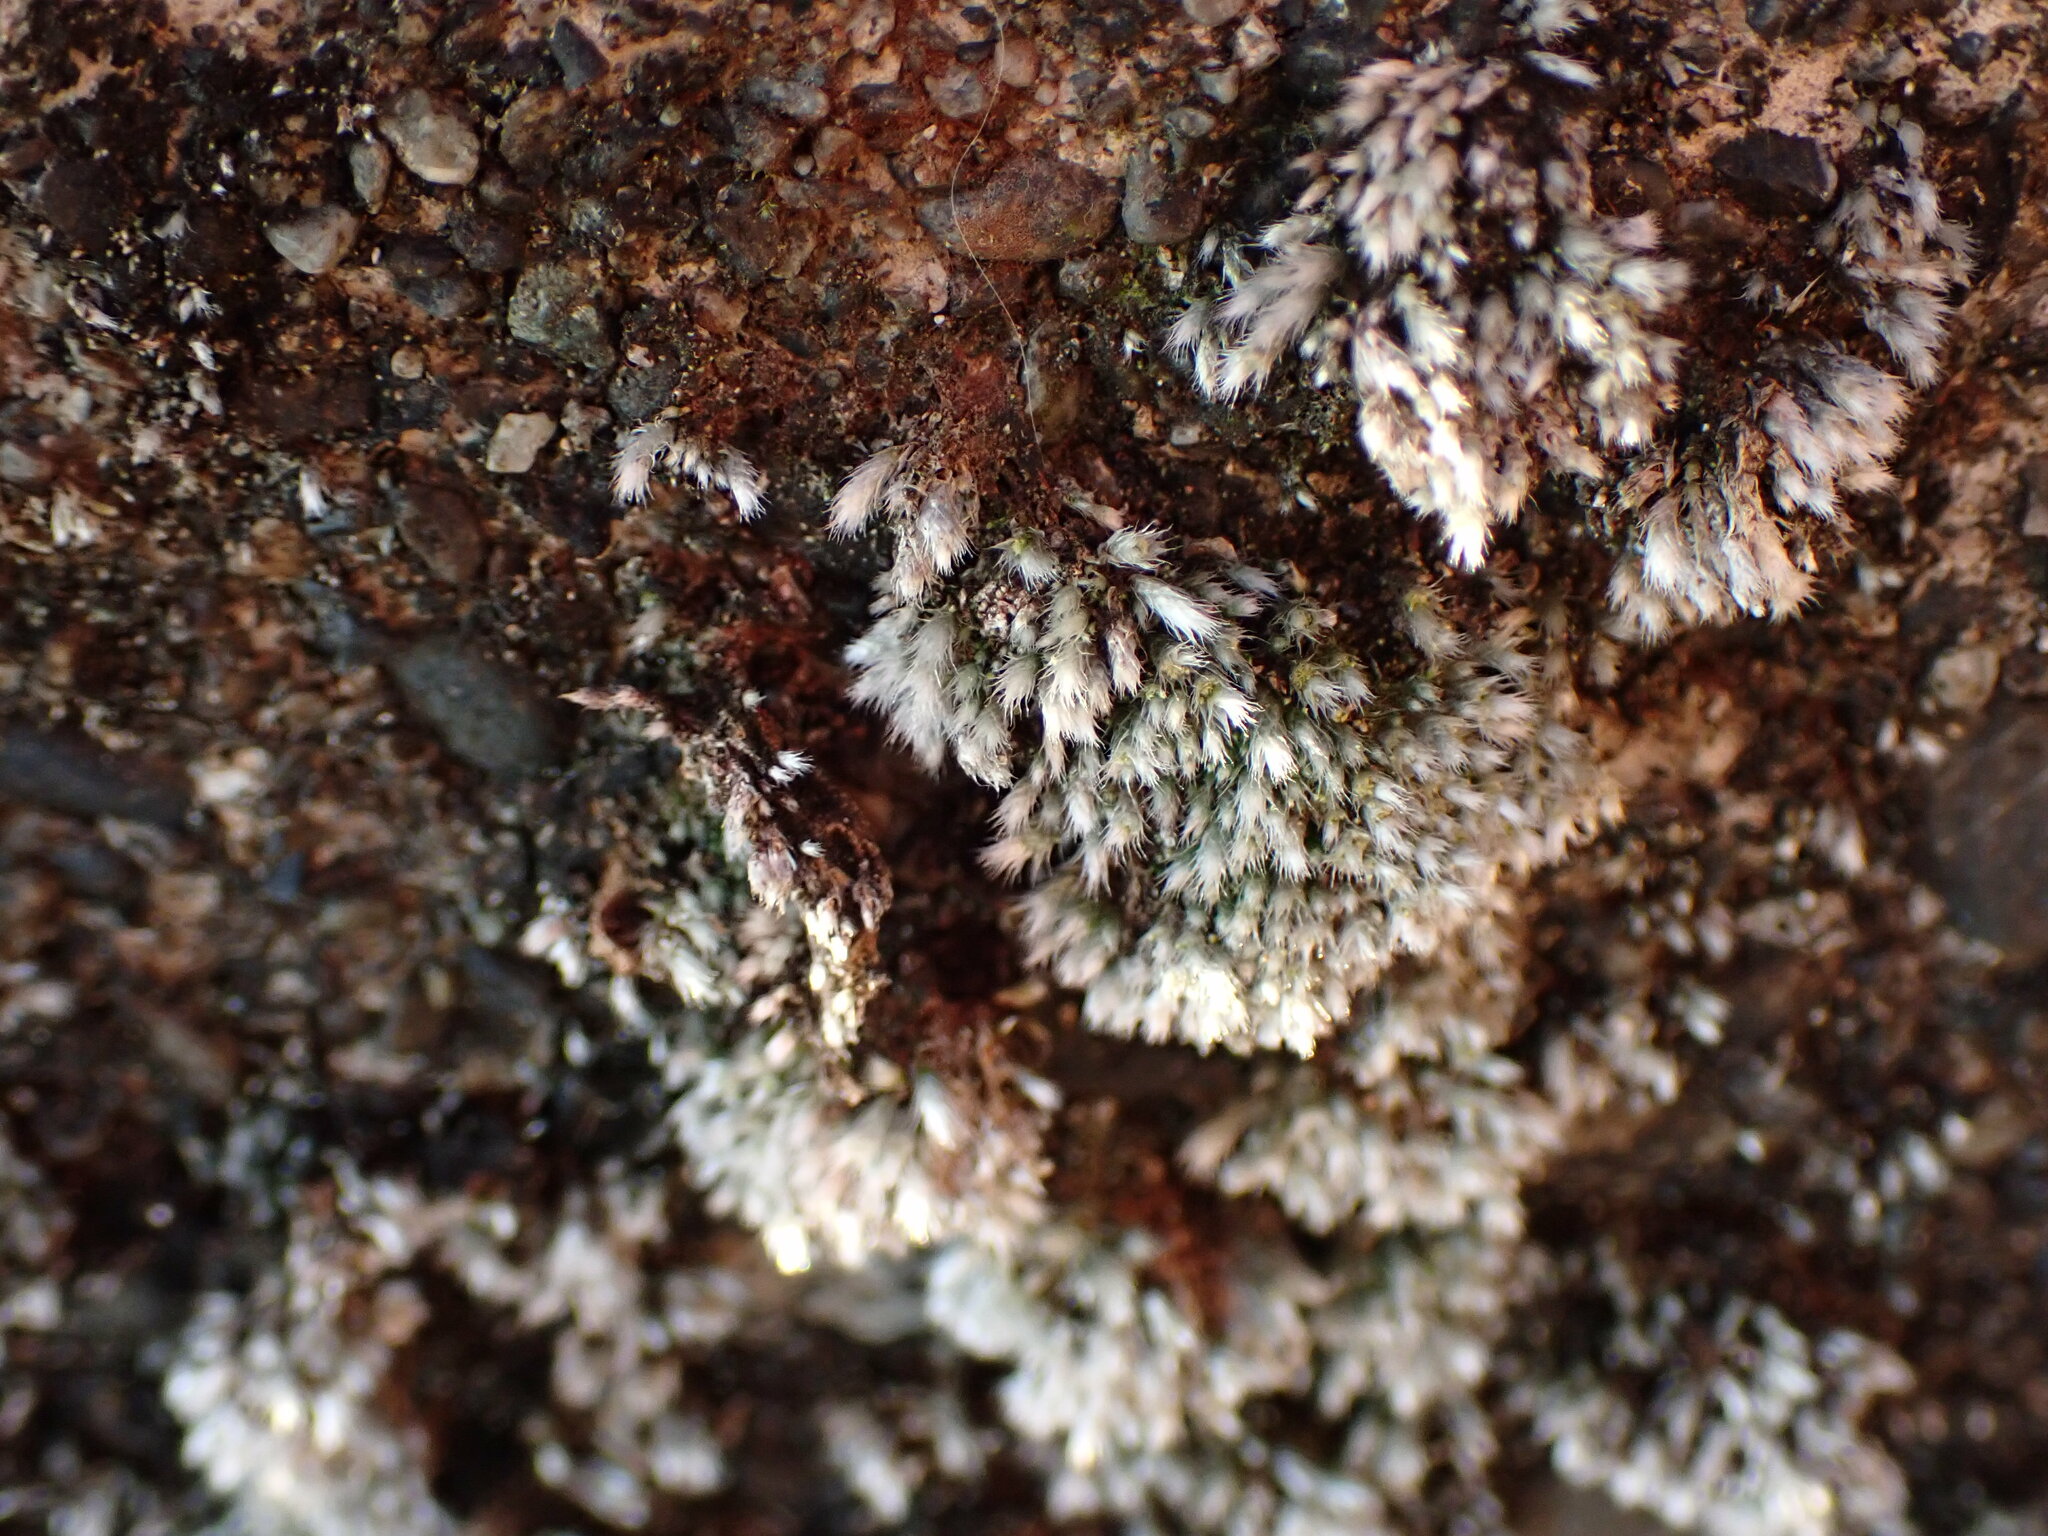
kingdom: Plantae
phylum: Bryophyta
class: Bryopsida
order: Bryales
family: Bryaceae
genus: Bryum
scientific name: Bryum argenteum
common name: Silver-moss
